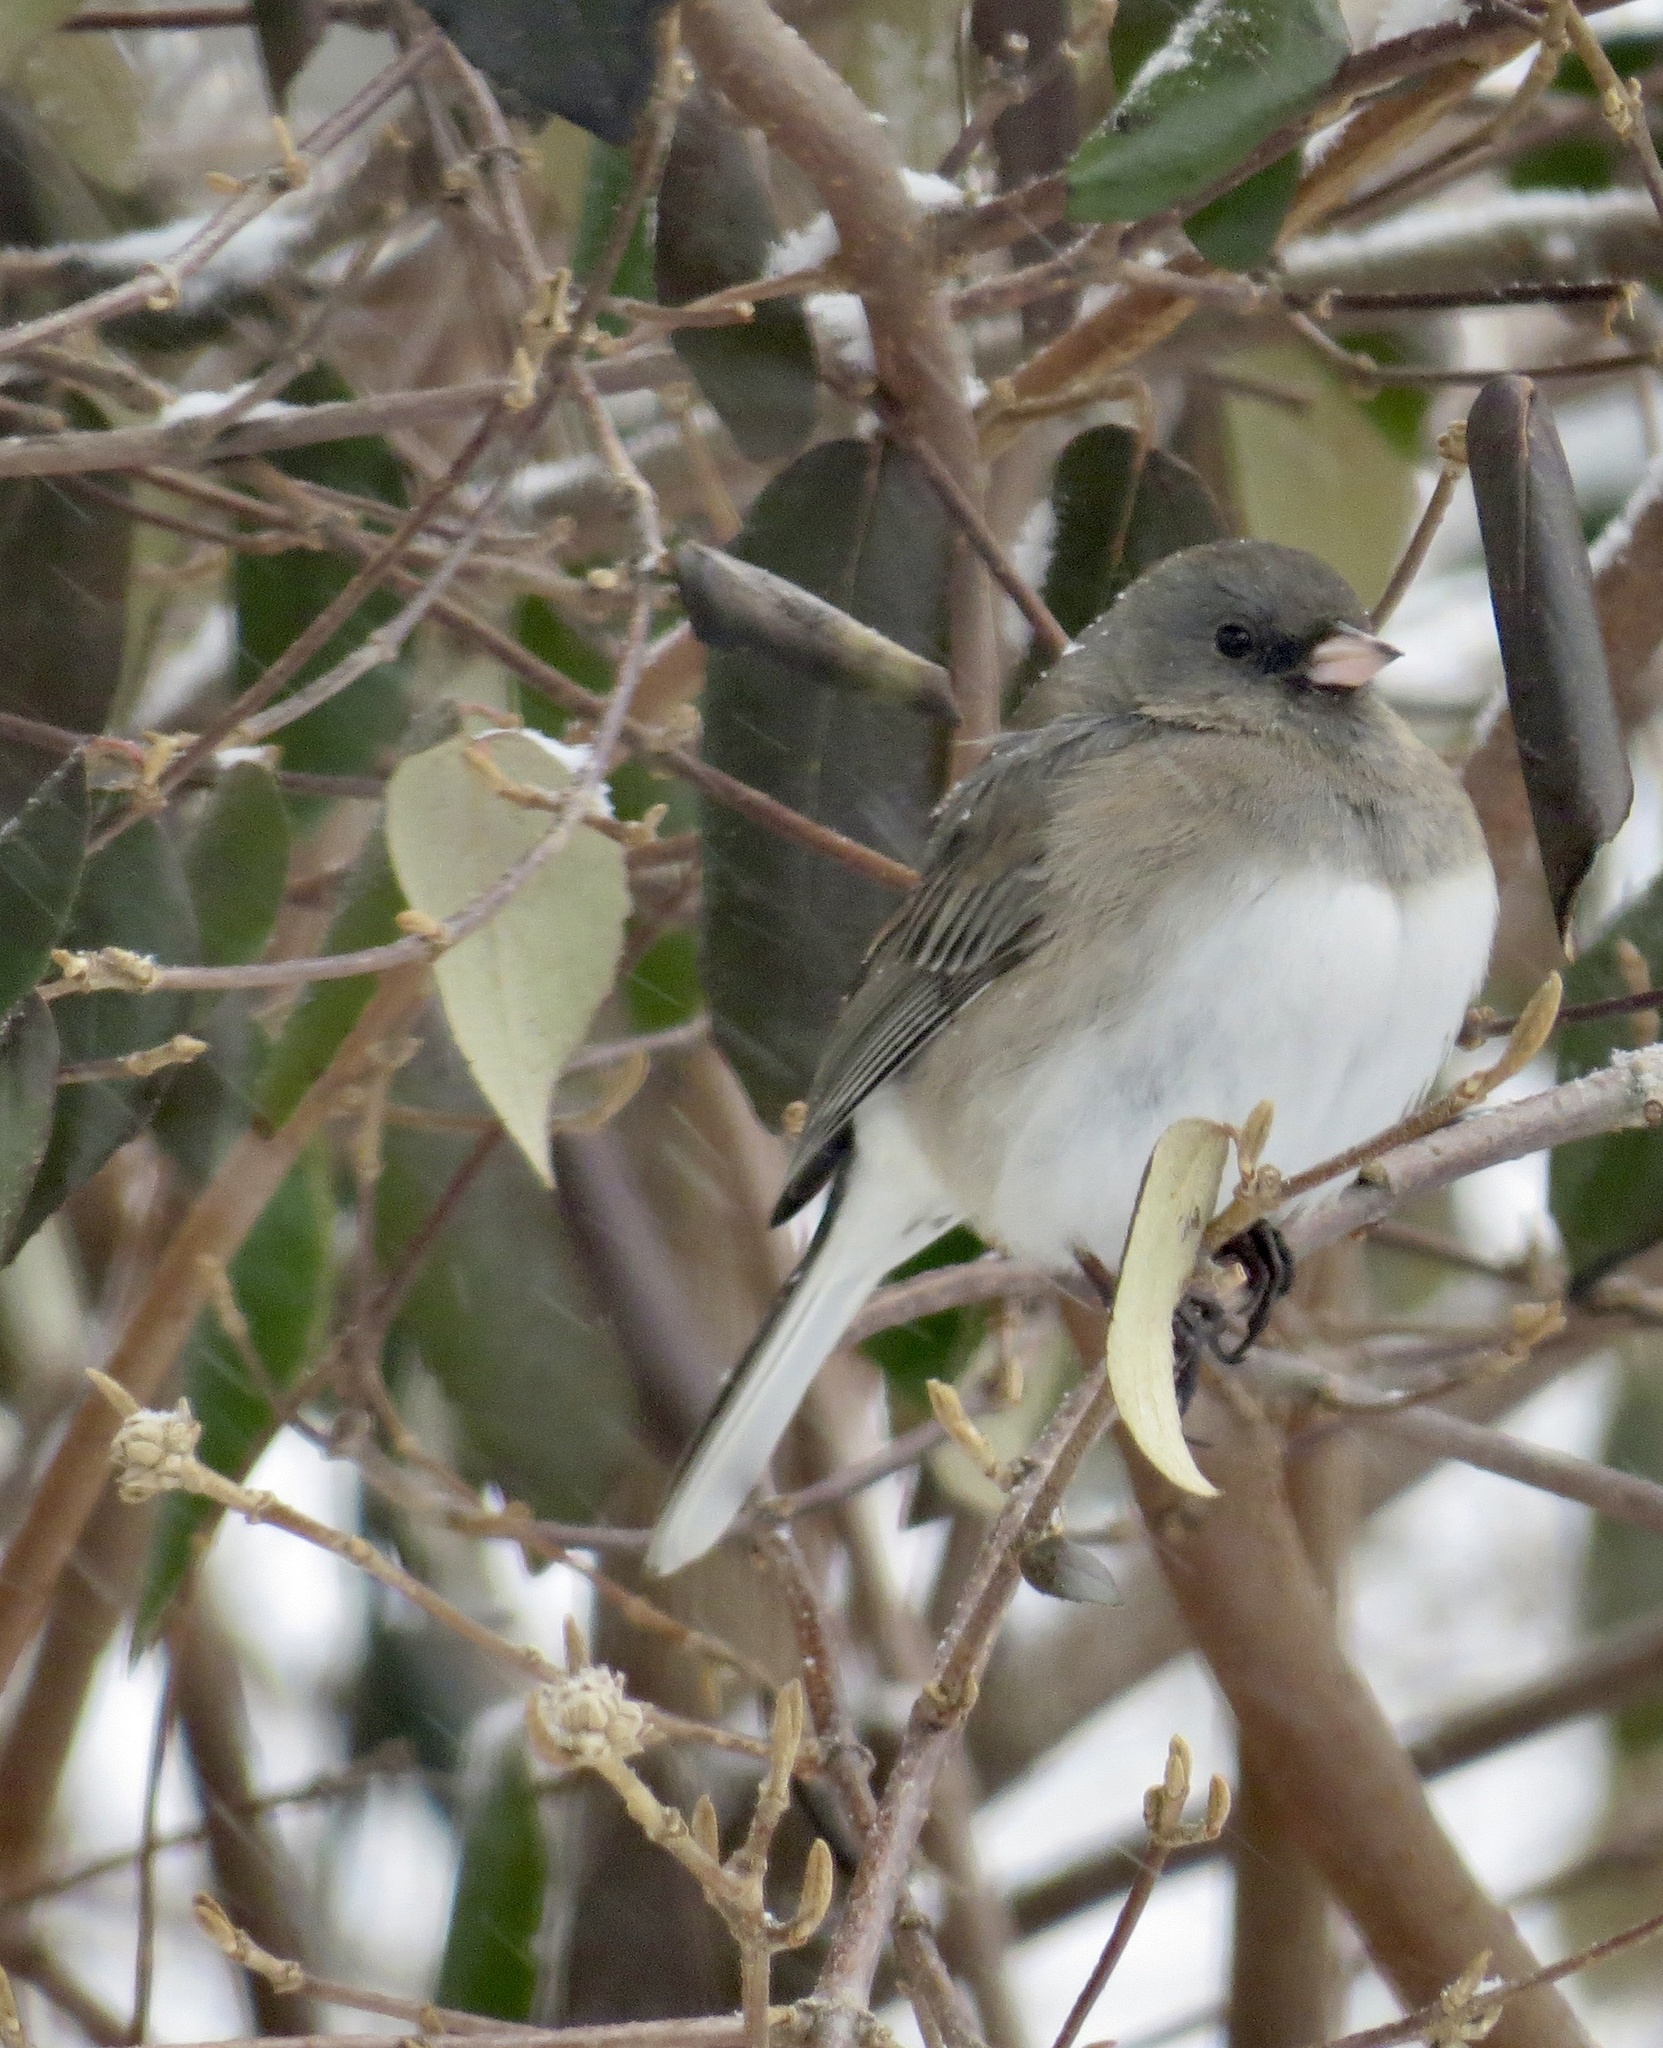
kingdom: Animalia
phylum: Chordata
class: Aves
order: Passeriformes
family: Passerellidae
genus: Junco
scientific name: Junco hyemalis
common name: Dark-eyed junco
